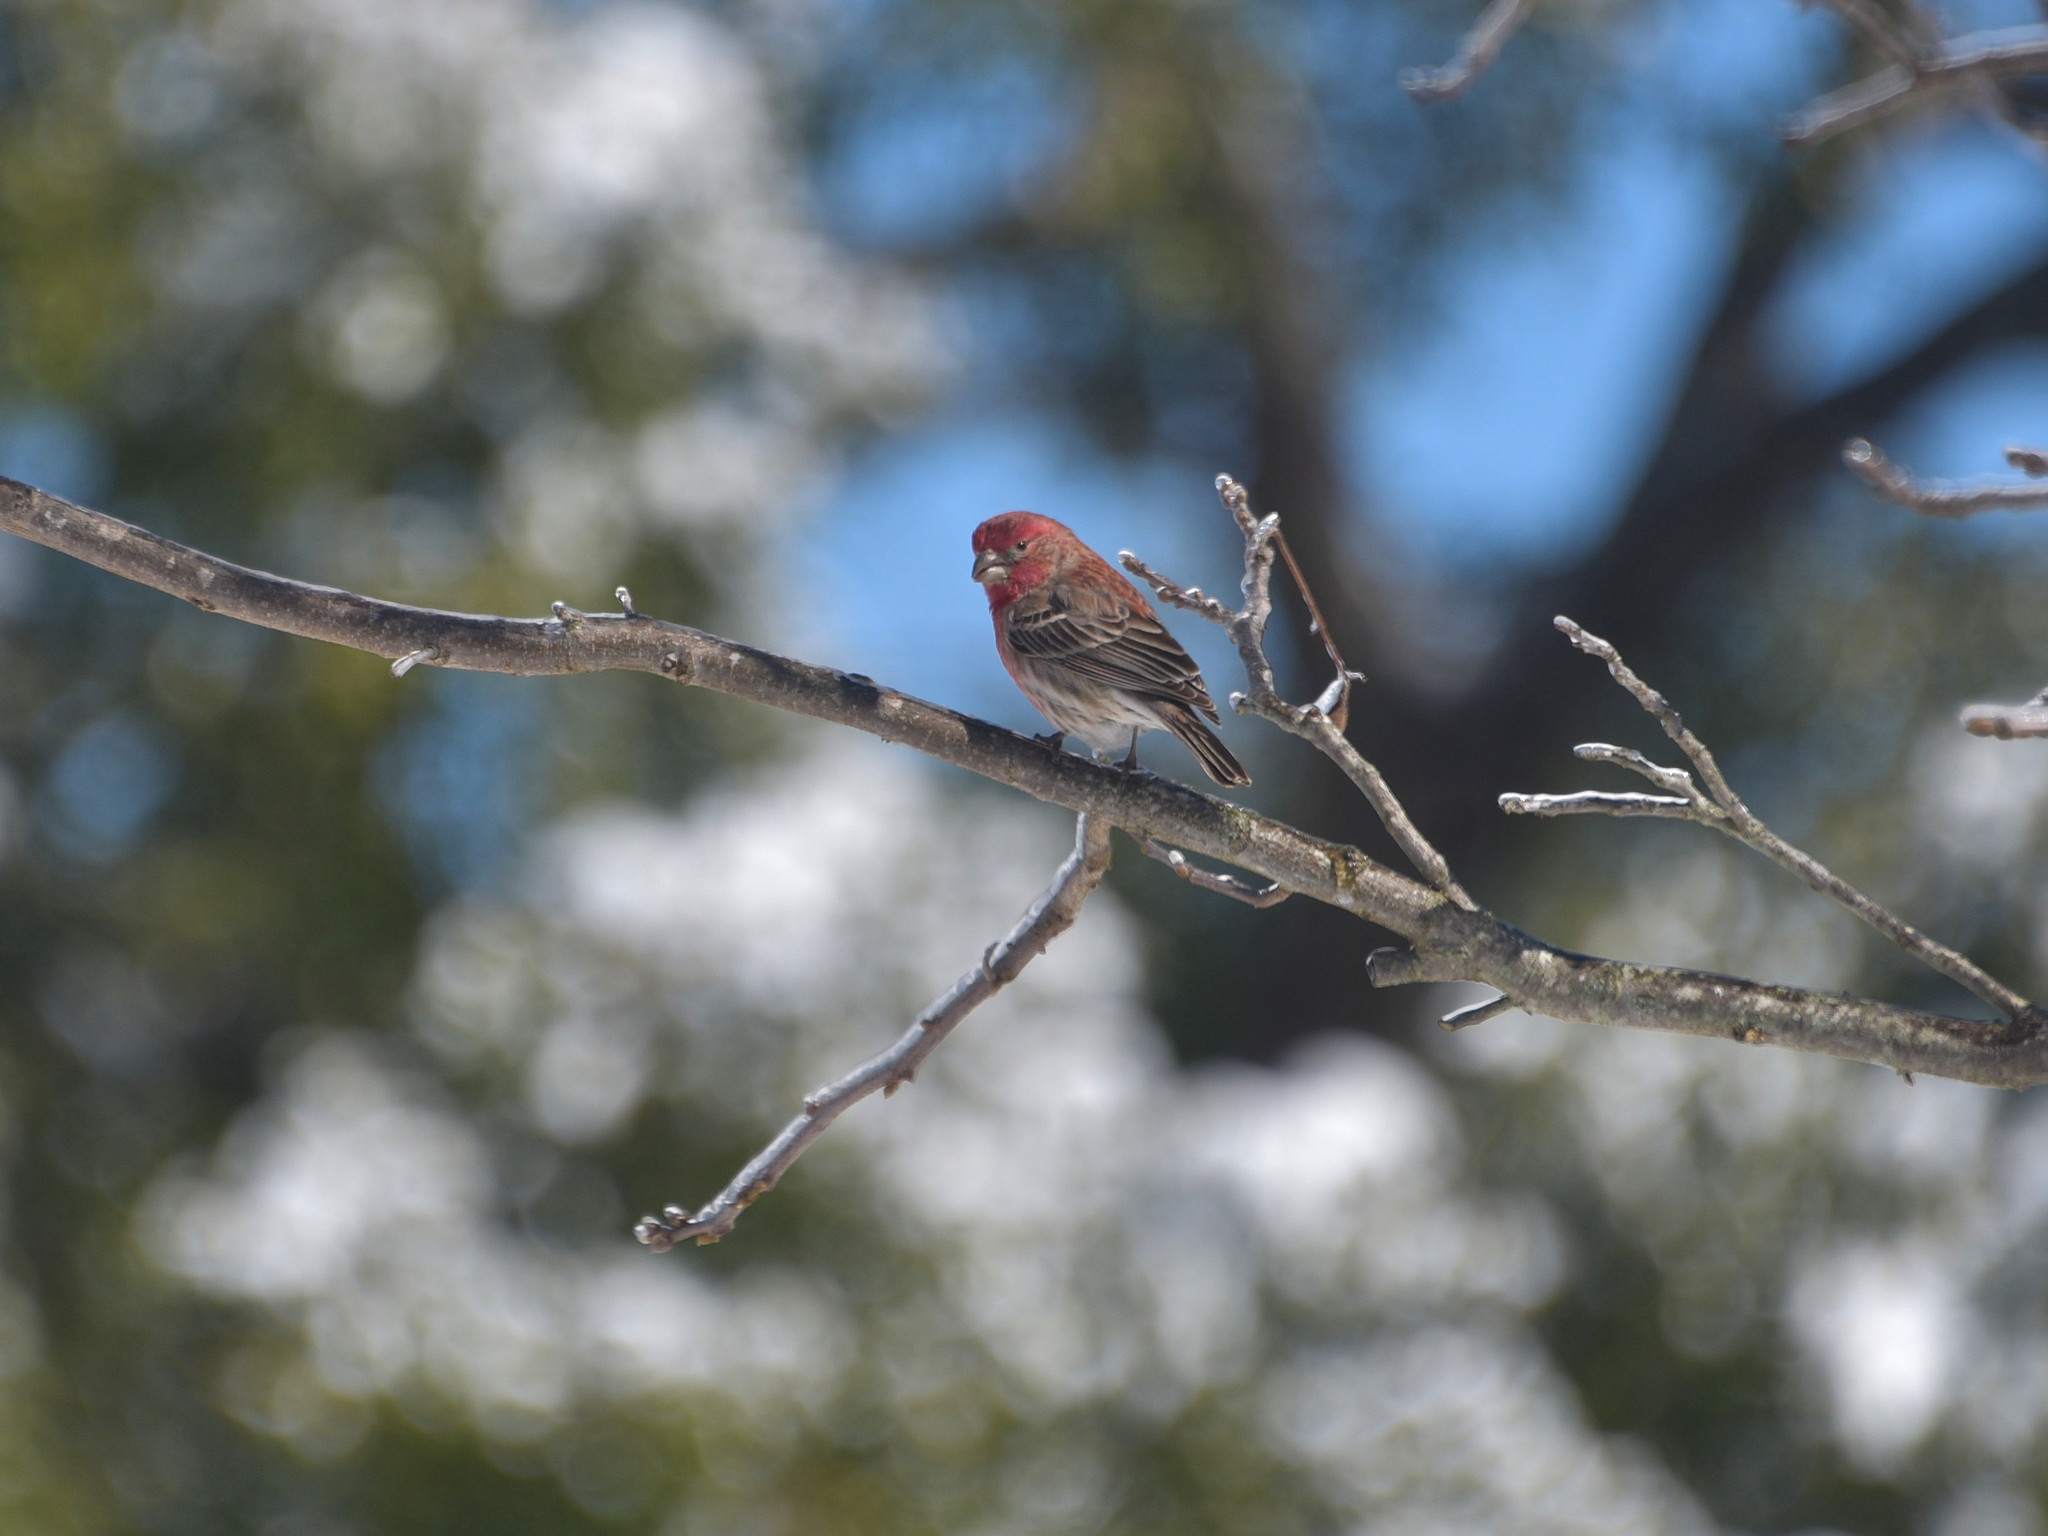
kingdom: Animalia
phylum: Chordata
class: Aves
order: Passeriformes
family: Fringillidae
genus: Haemorhous
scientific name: Haemorhous mexicanus
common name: House finch
